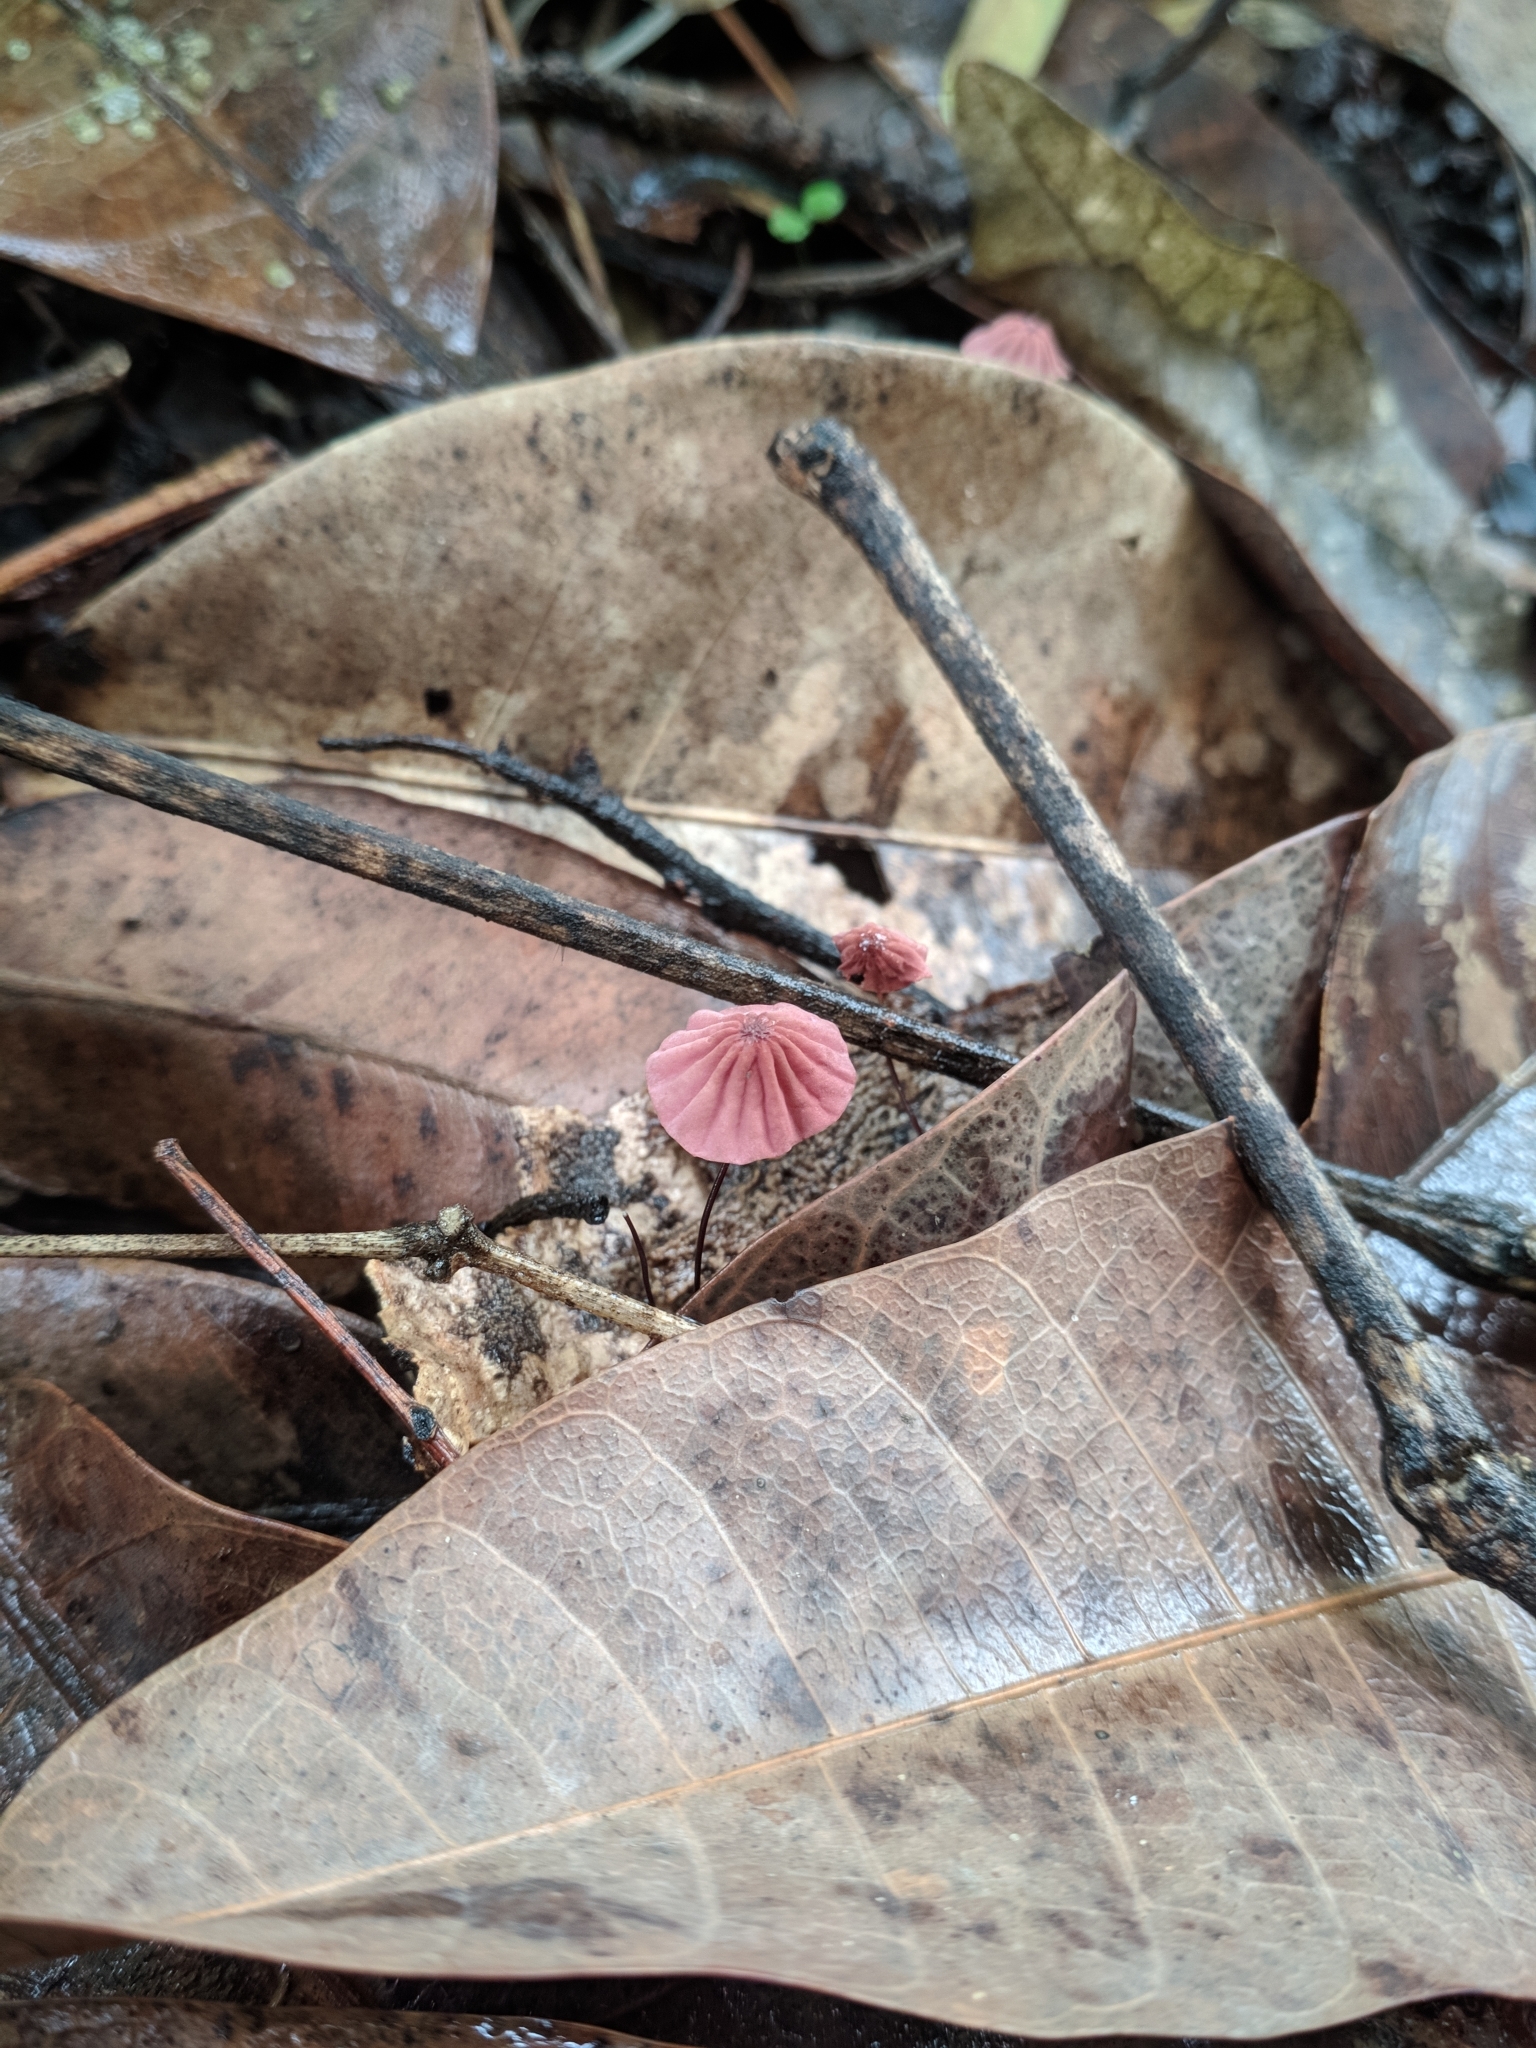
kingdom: Fungi
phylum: Basidiomycota
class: Agaricomycetes
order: Agaricales
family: Marasmiaceae
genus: Marasmius
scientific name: Marasmius haematocephalus
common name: Purple pinwheel
